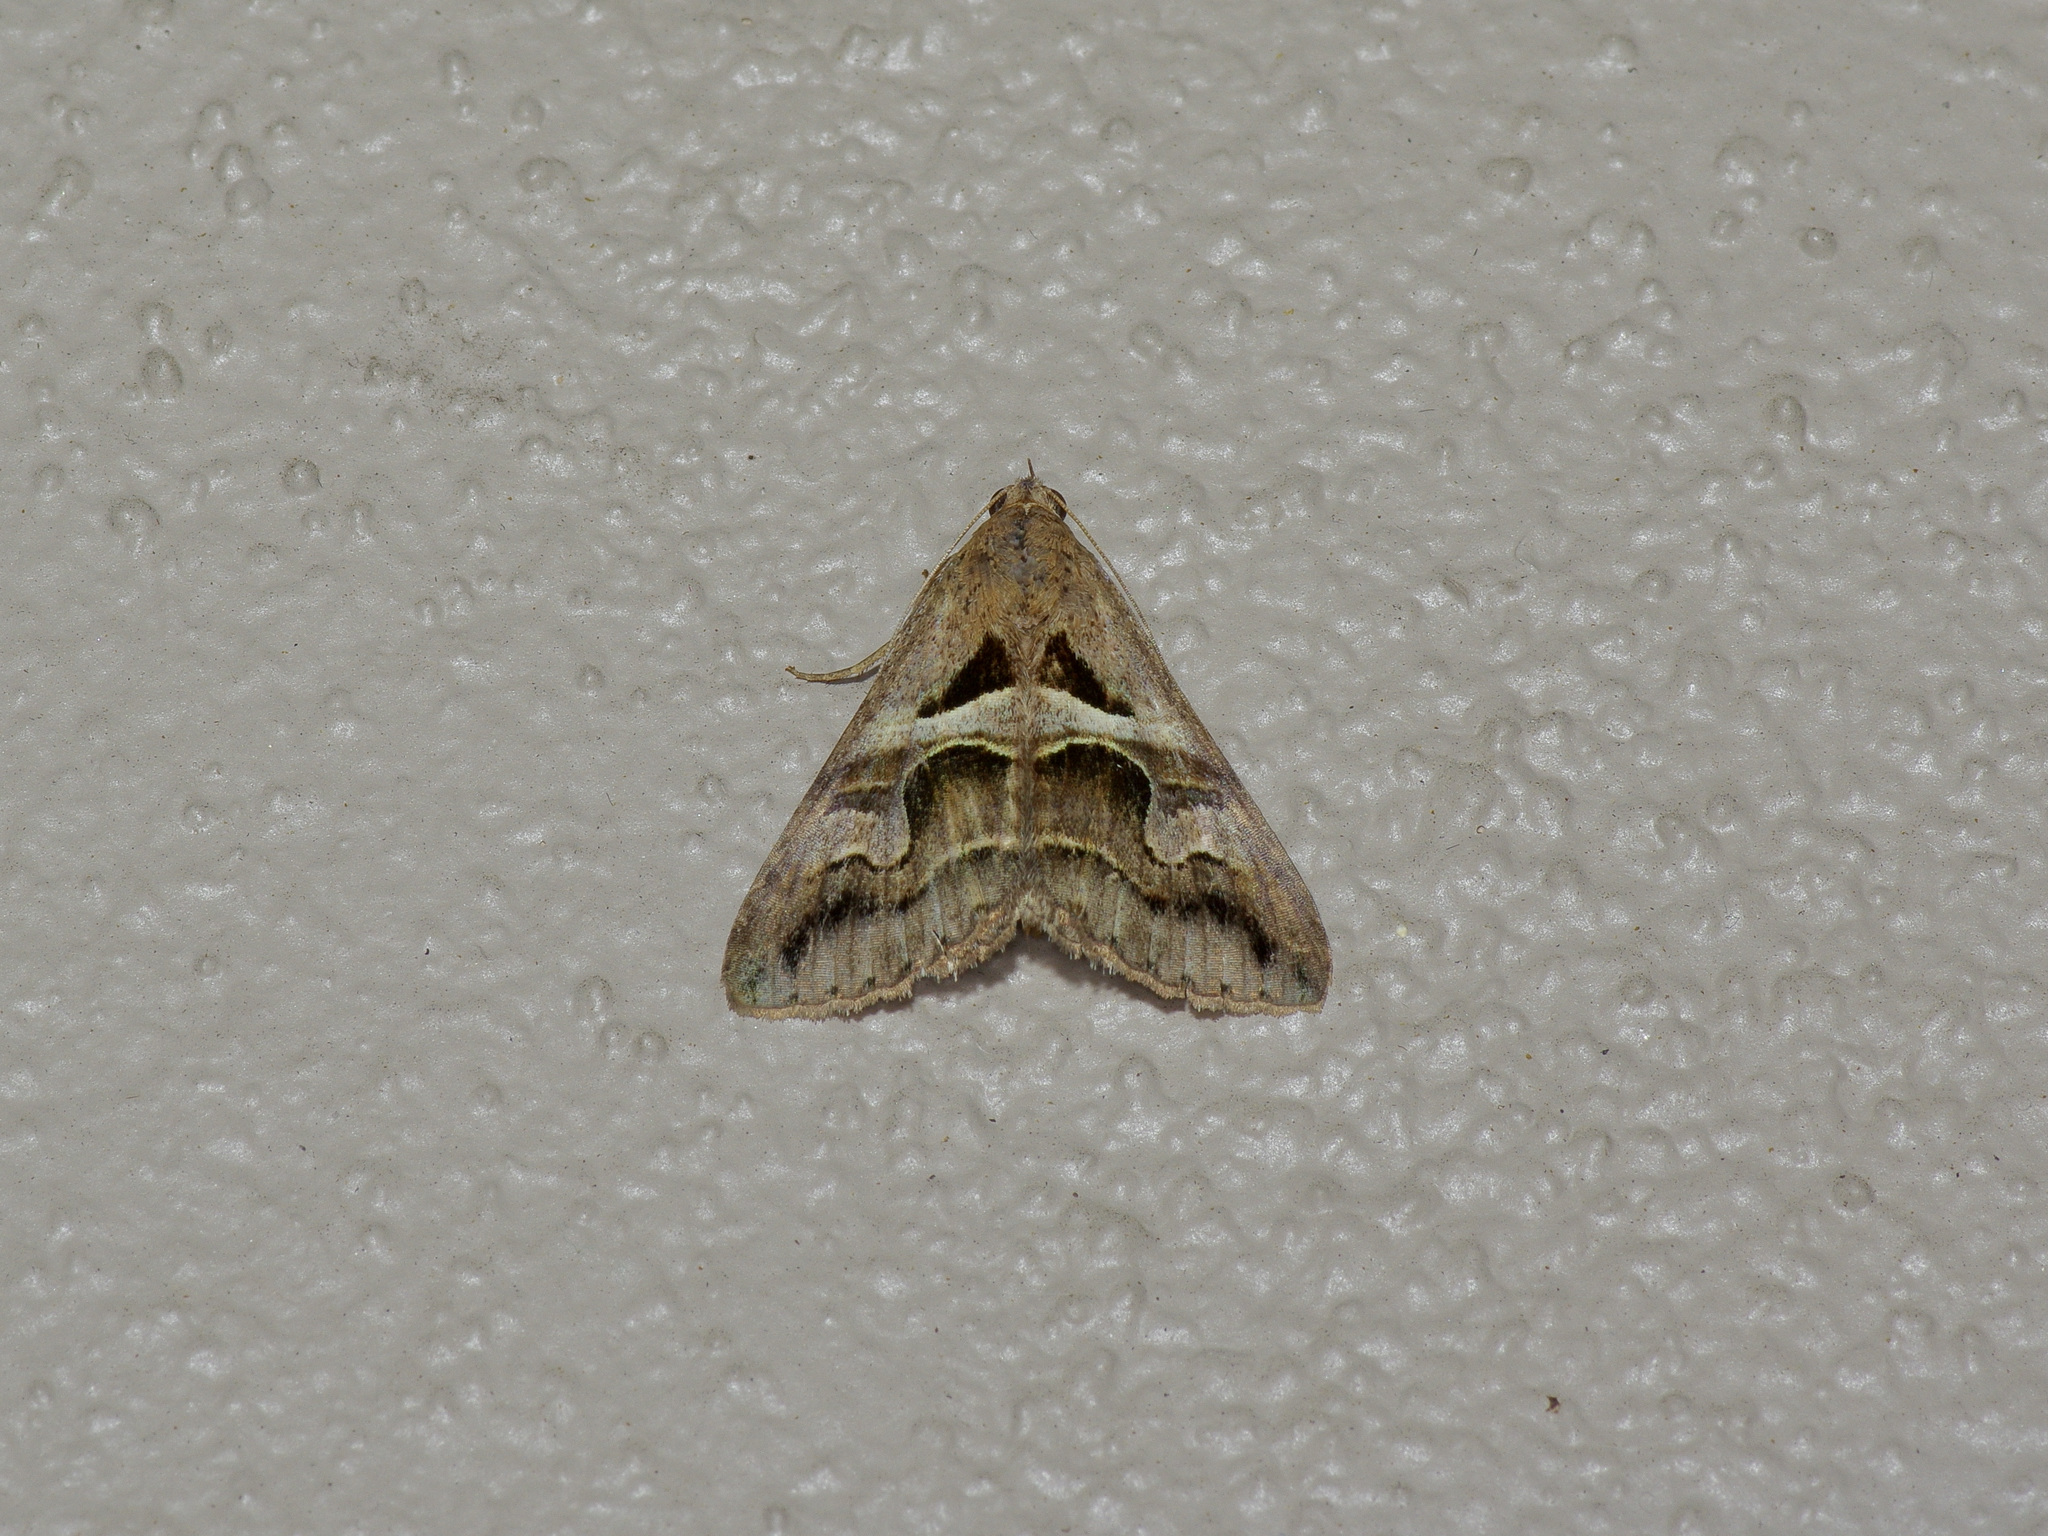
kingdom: Animalia
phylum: Arthropoda
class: Insecta
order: Lepidoptera
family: Erebidae
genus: Melipotis
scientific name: Melipotis cellaris
